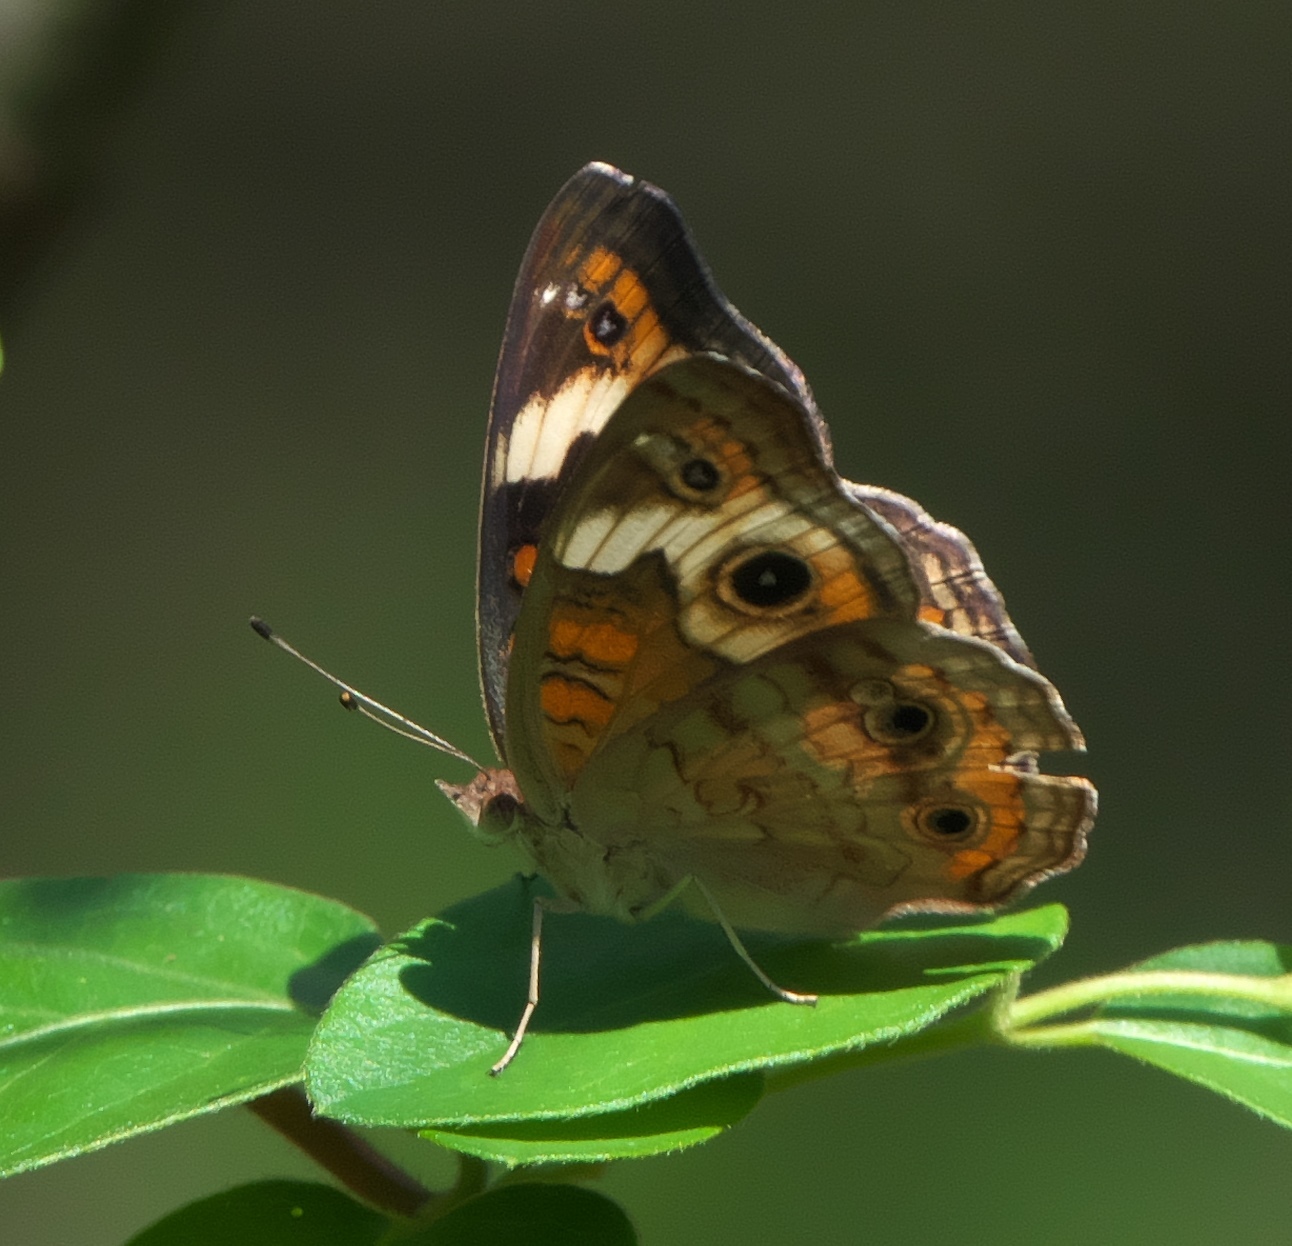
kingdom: Animalia
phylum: Arthropoda
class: Insecta
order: Lepidoptera
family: Nymphalidae
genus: Junonia
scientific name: Junonia coenia
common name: Common buckeye
